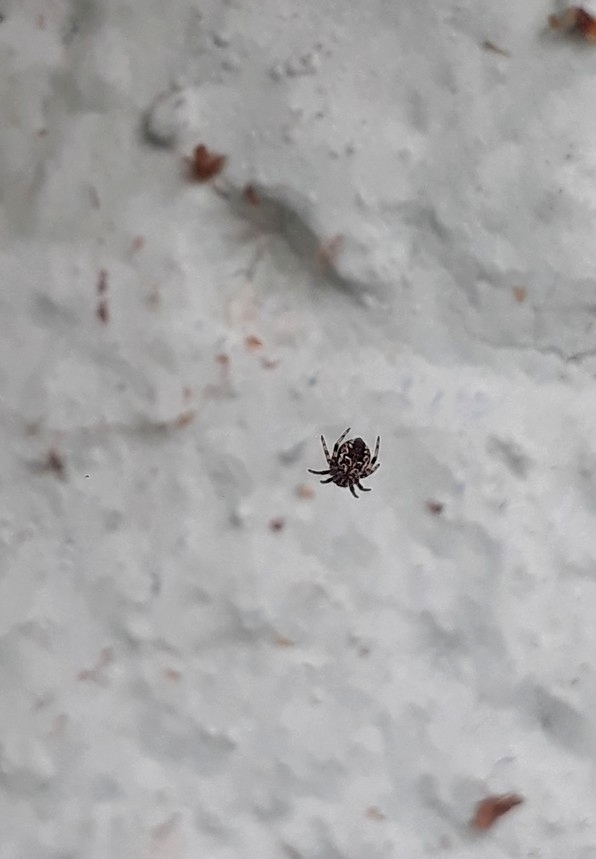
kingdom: Animalia
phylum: Arthropoda
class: Arachnida
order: Araneae
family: Araneidae
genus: Metepeira
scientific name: Metepeira
